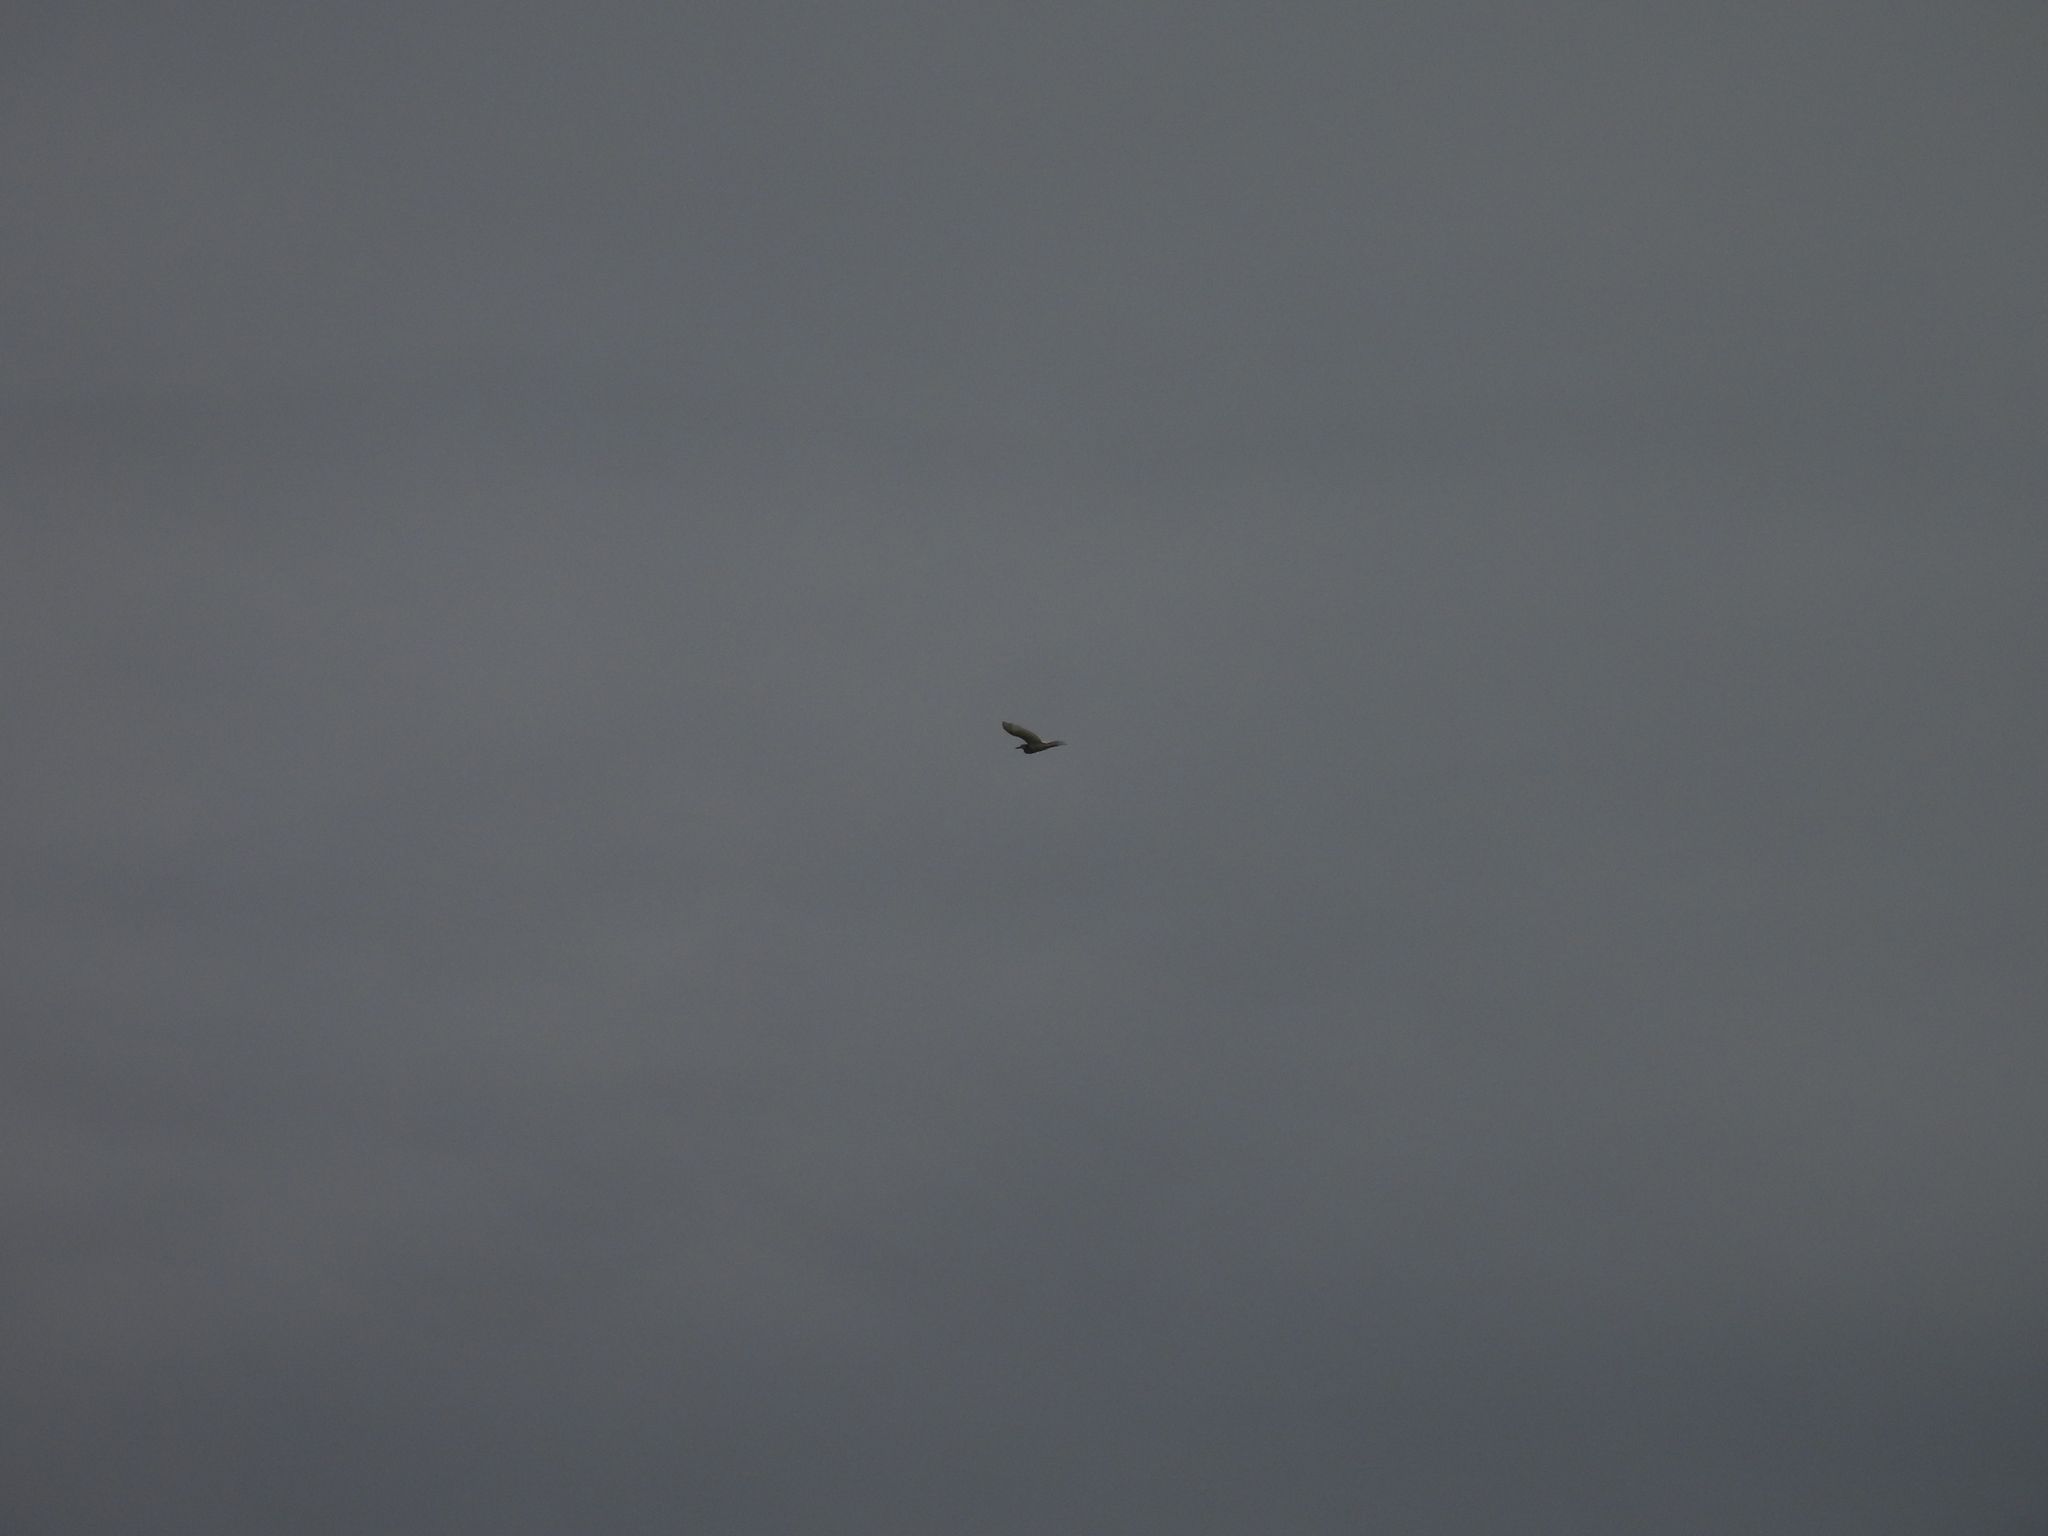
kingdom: Animalia
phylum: Chordata
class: Aves
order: Pelecaniformes
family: Ardeidae
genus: Ardeola
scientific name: Ardeola grayii
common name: Indian pond heron
